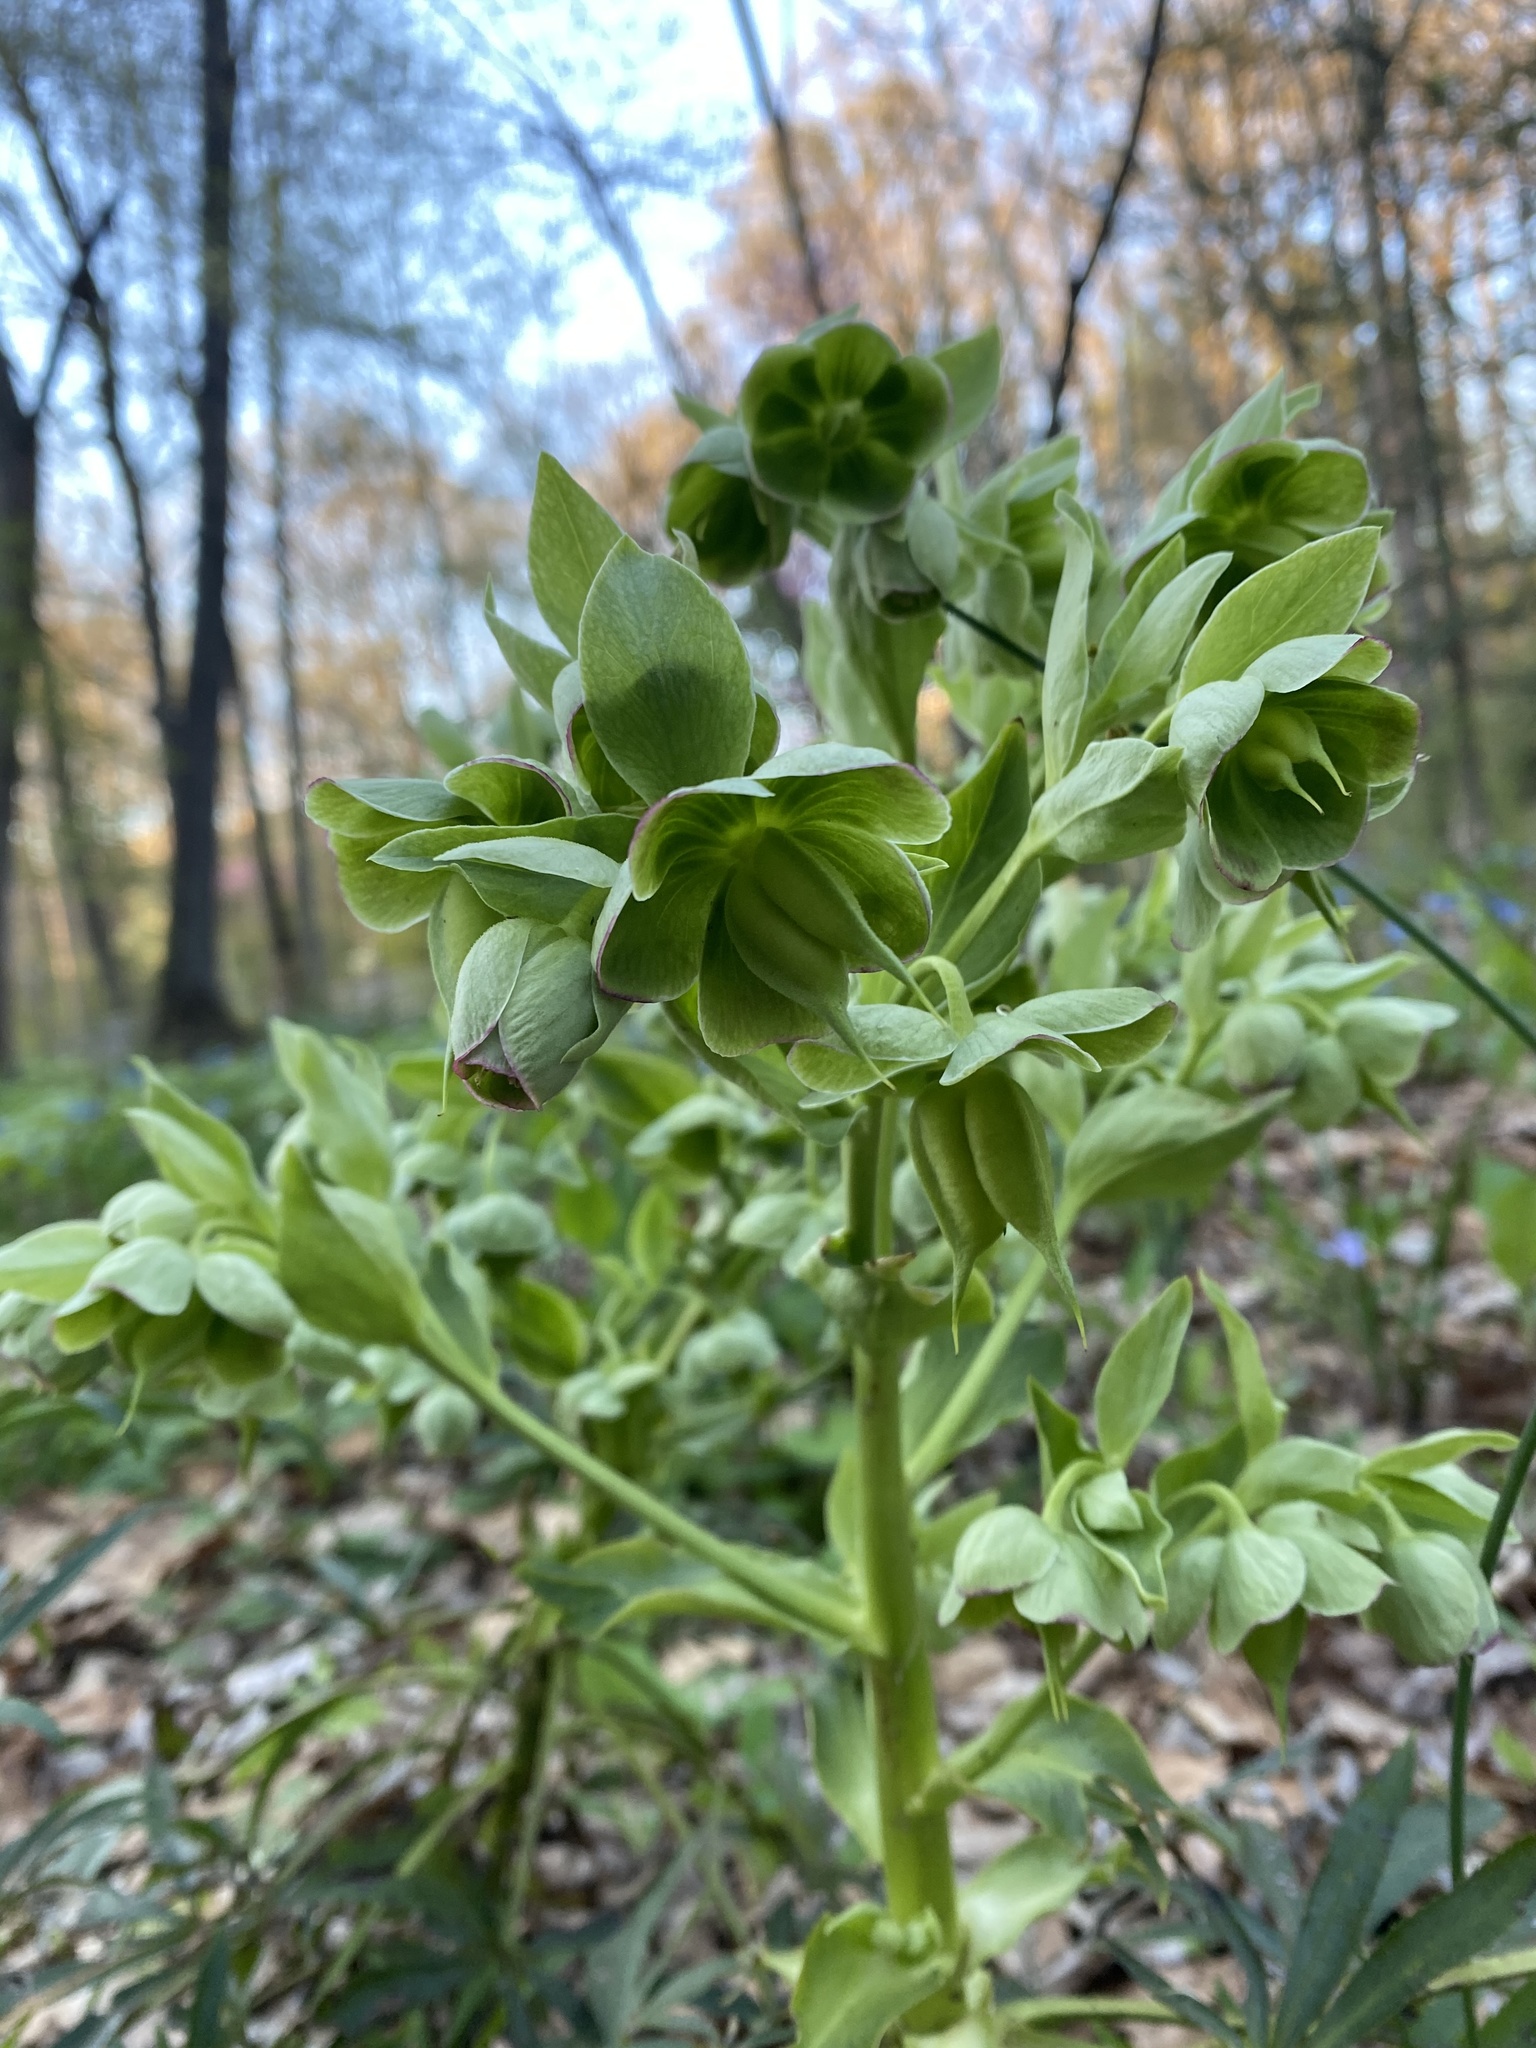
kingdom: Plantae
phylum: Tracheophyta
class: Magnoliopsida
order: Ranunculales
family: Ranunculaceae
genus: Helleborus
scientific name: Helleborus foetidus
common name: Stinking hellebore
